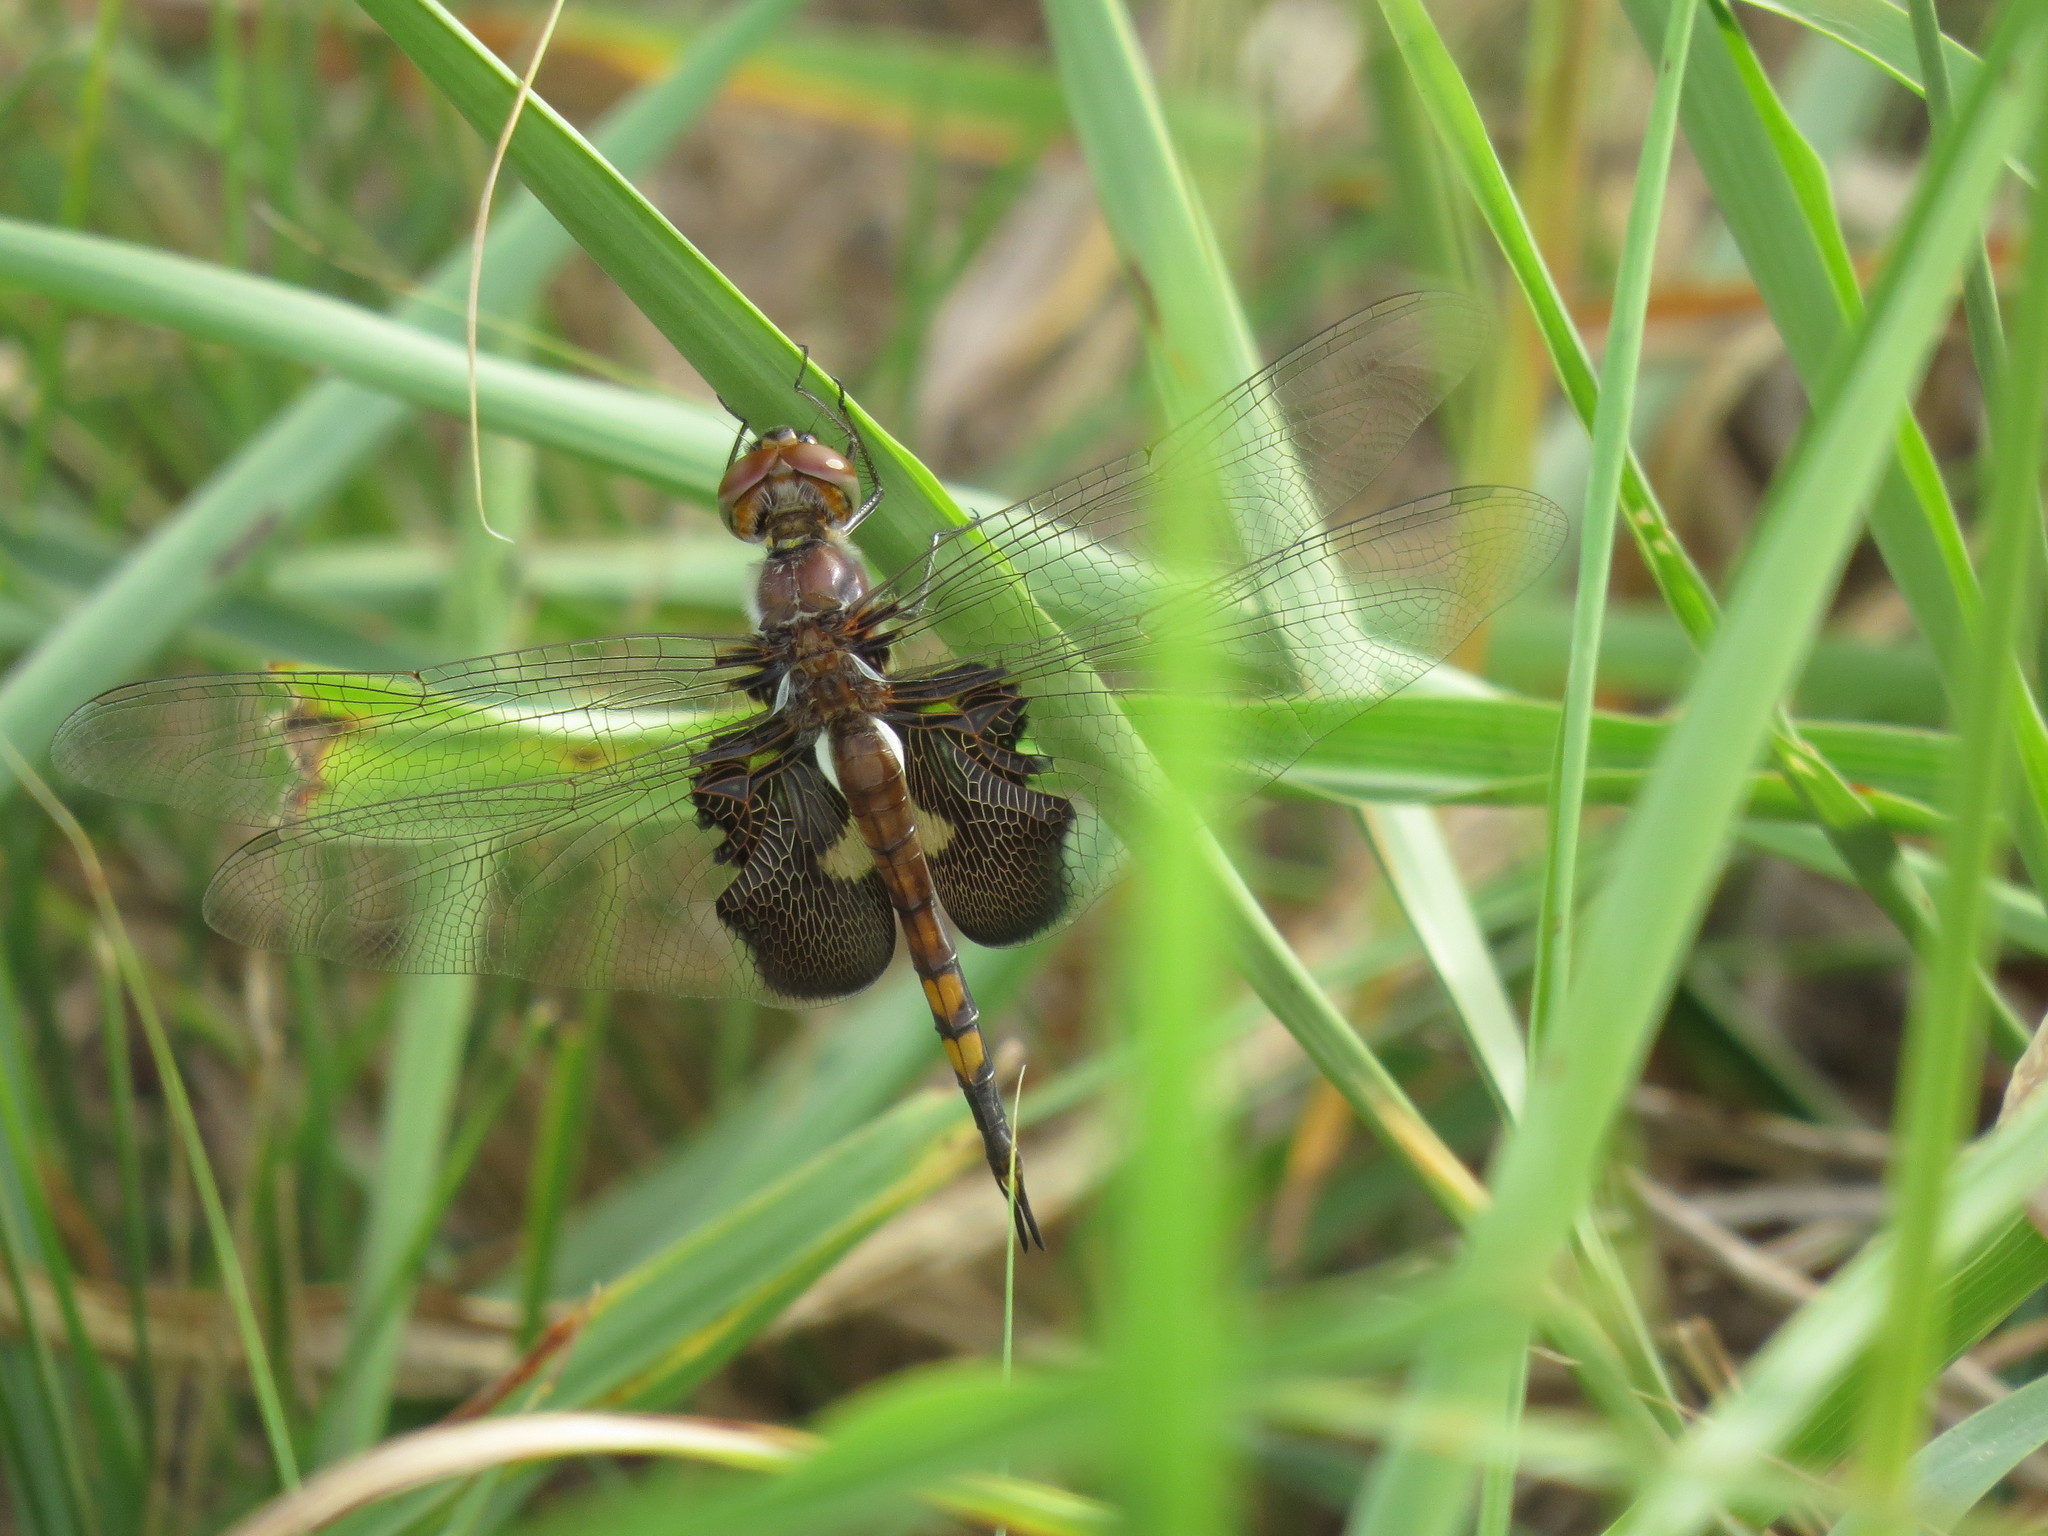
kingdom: Animalia
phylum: Arthropoda
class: Insecta
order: Odonata
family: Libellulidae
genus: Tramea
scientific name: Tramea lacerata
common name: Black saddlebags
